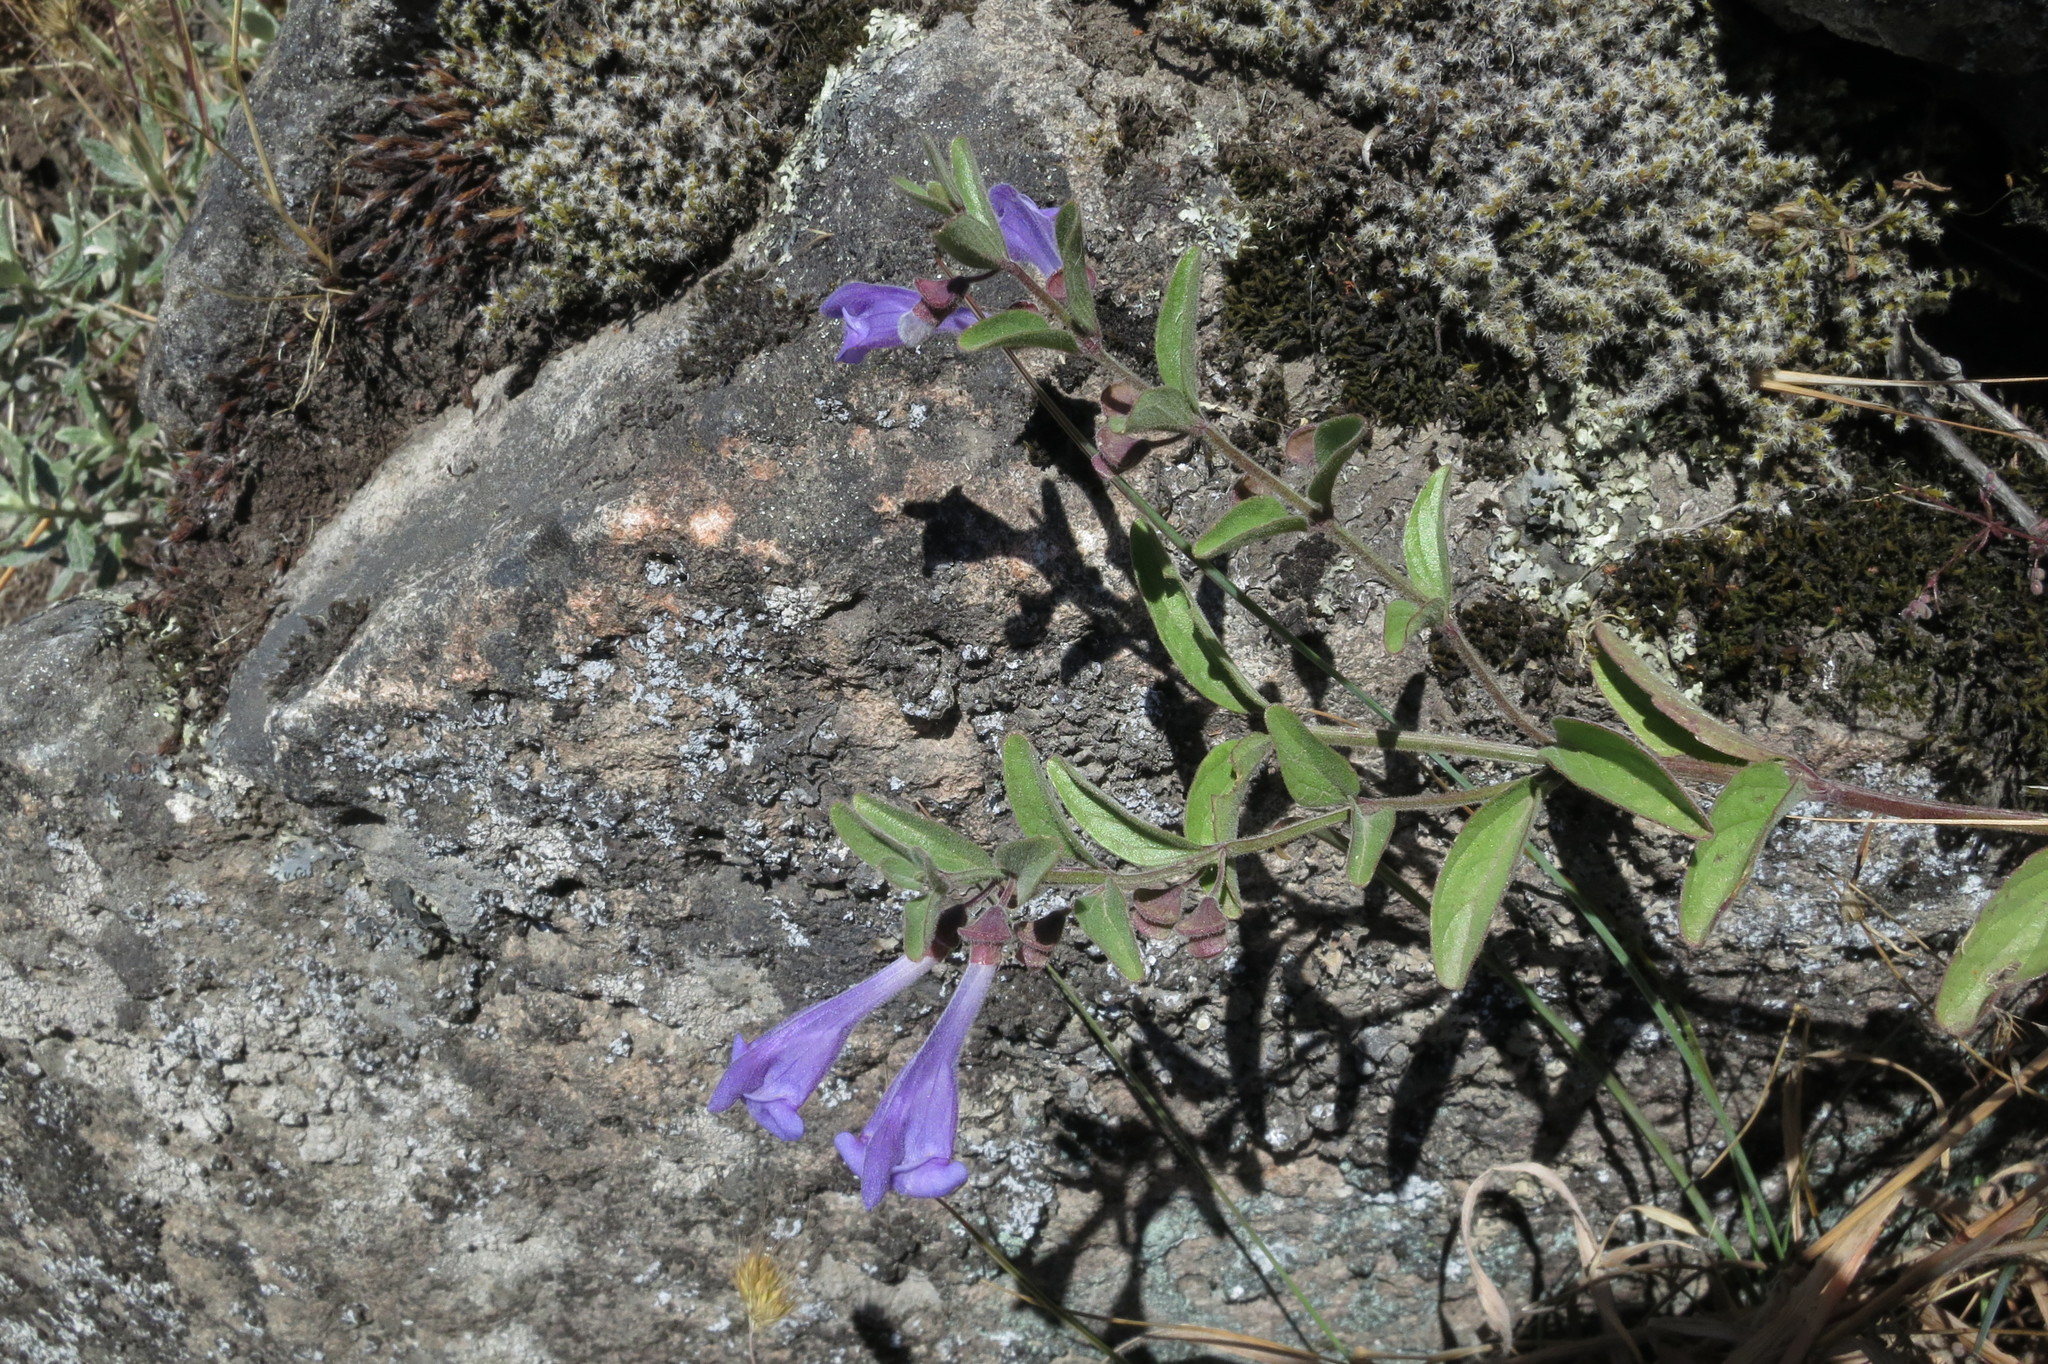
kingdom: Plantae
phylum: Tracheophyta
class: Magnoliopsida
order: Lamiales
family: Lamiaceae
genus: Scutellaria
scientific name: Scutellaria antirrhinoides
